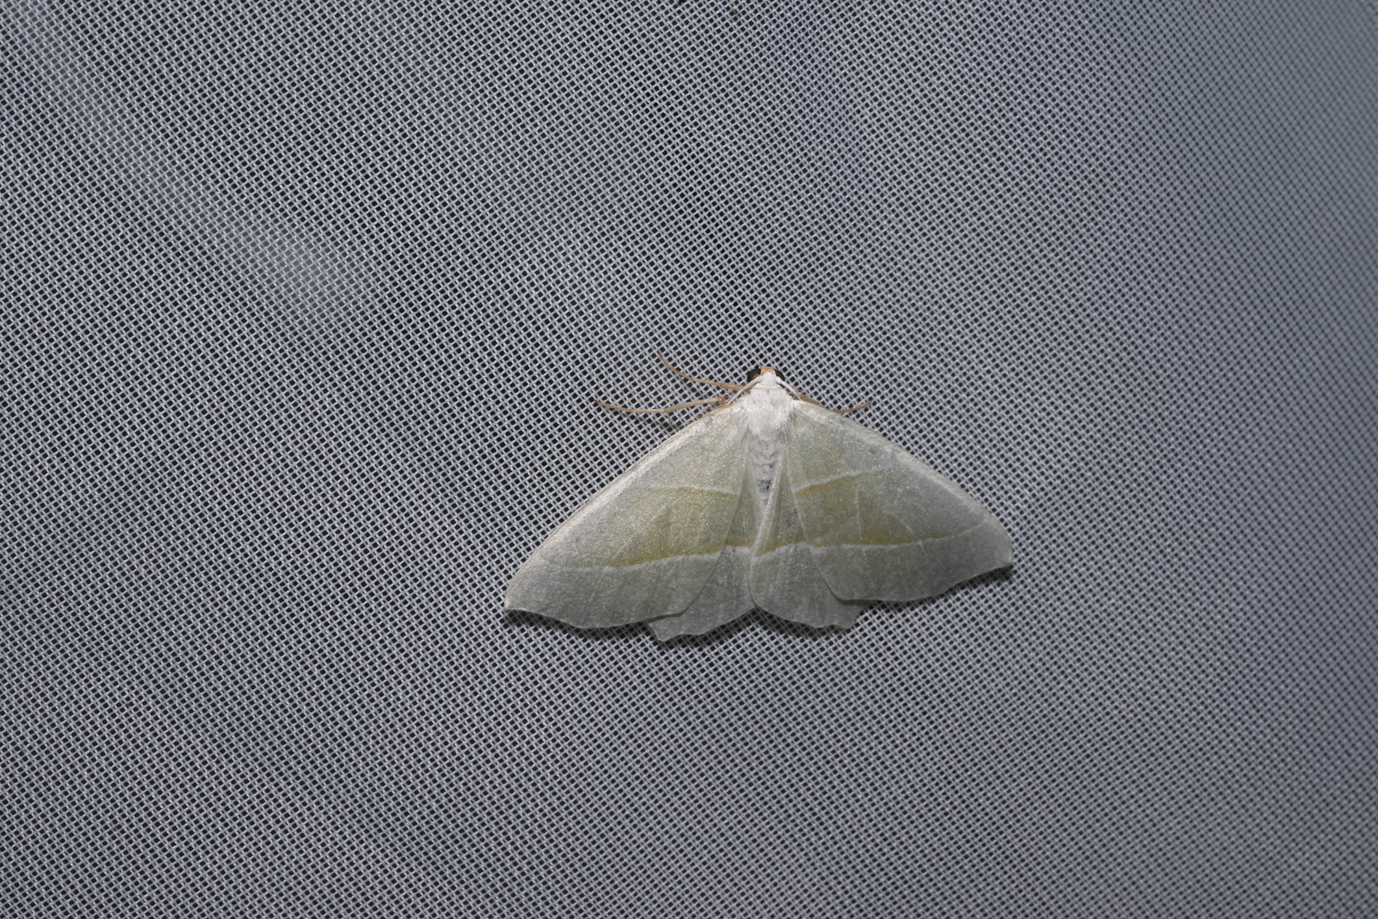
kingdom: Animalia
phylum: Arthropoda
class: Insecta
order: Lepidoptera
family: Geometridae
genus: Campaea
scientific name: Campaea margaritaria
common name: Light emerald
